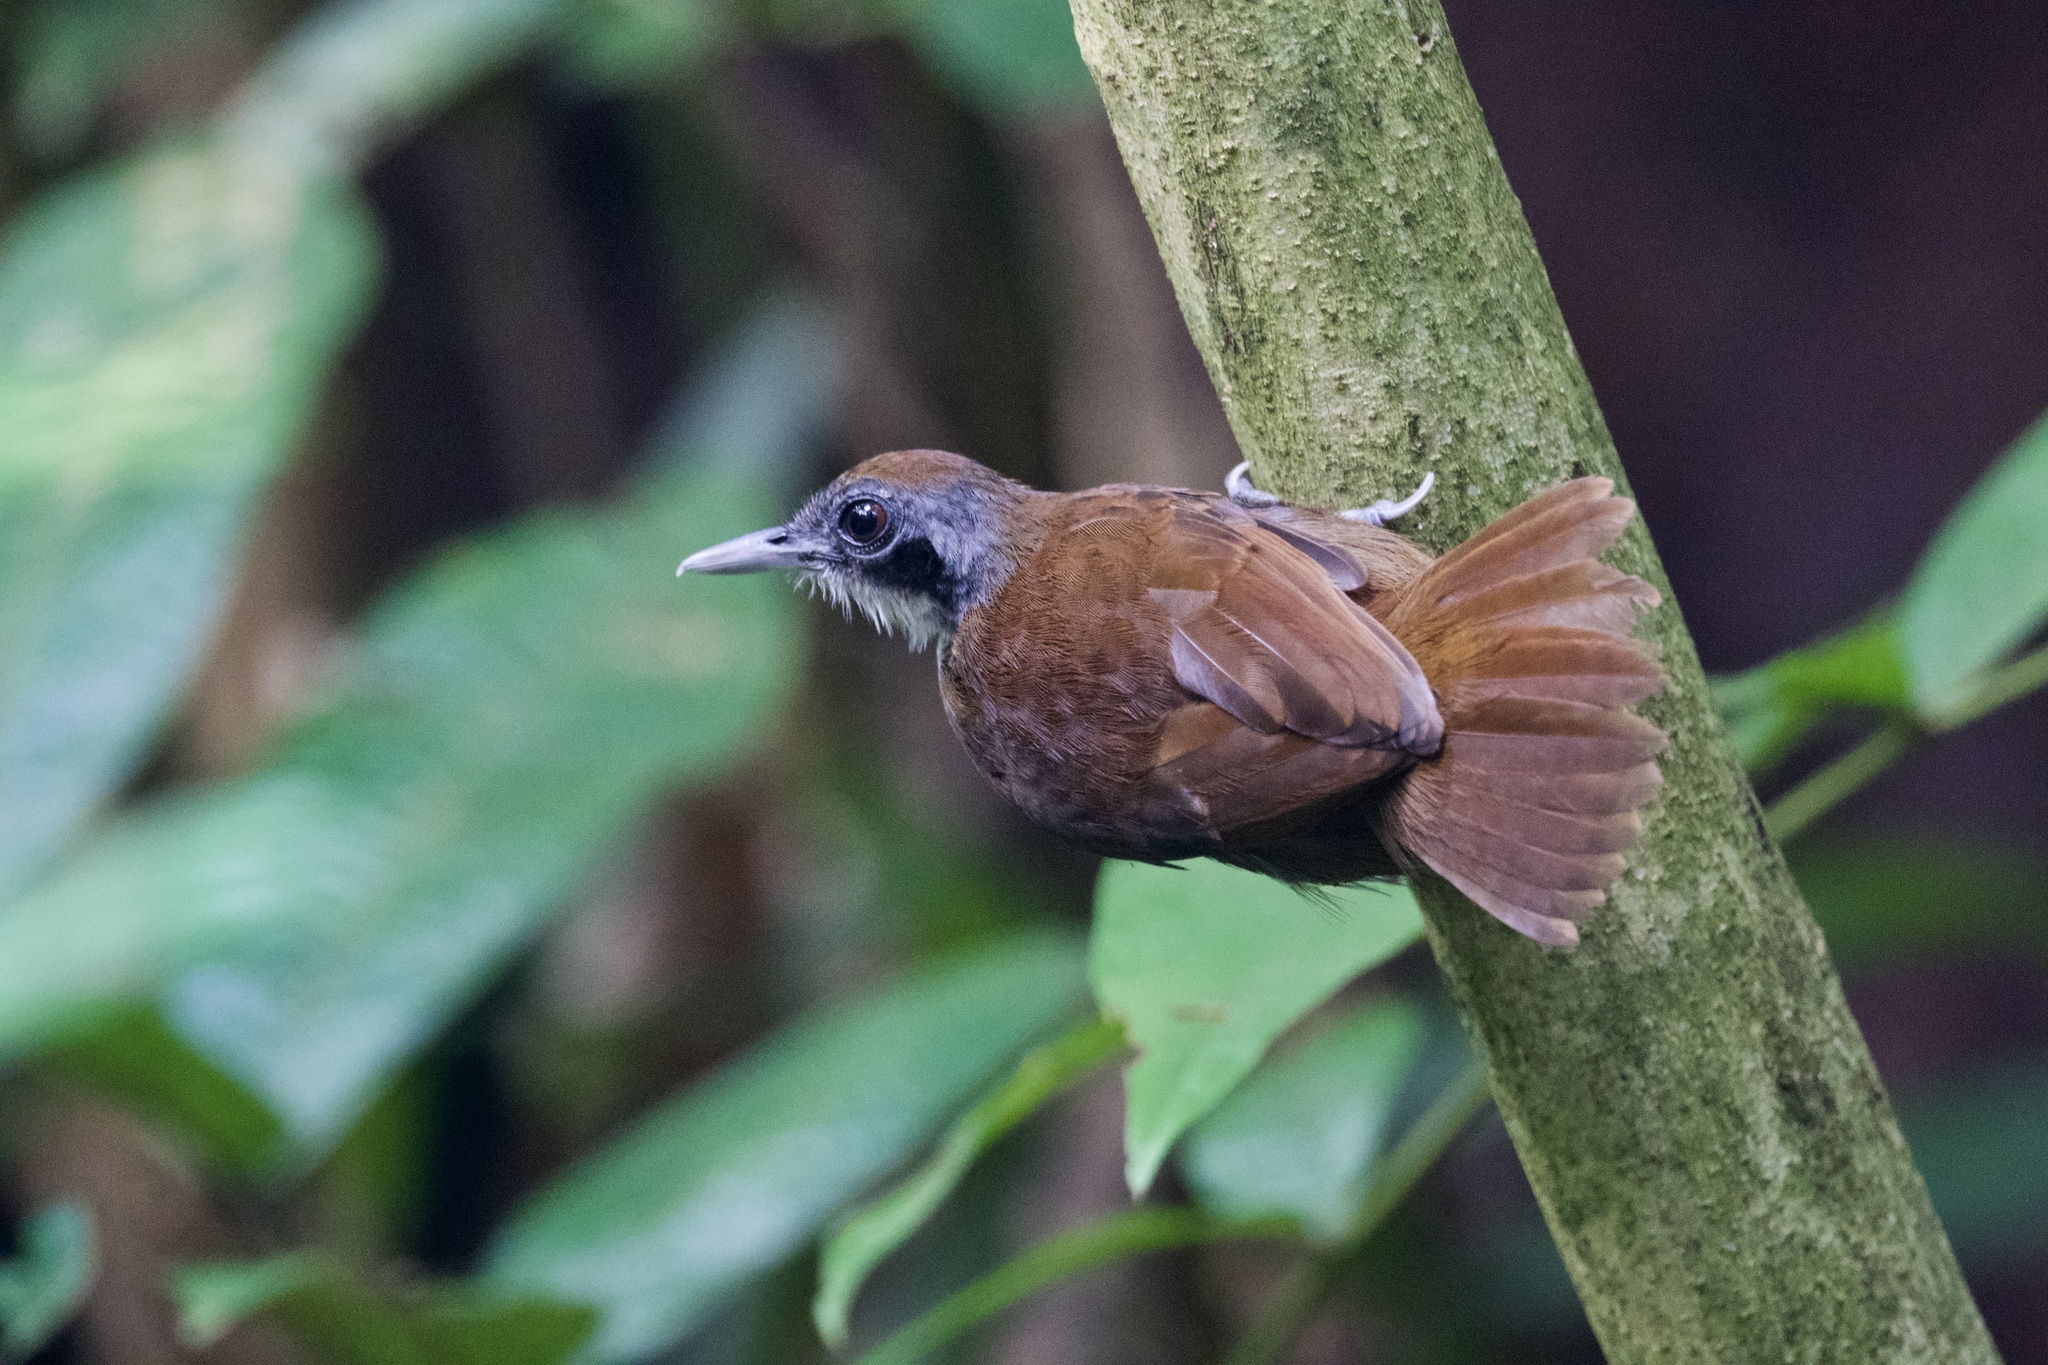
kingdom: Animalia
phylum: Chordata
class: Aves
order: Passeriformes
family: Thamnophilidae
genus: Gymnopithys
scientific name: Gymnopithys leucaspis
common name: White-cheeked antbird
